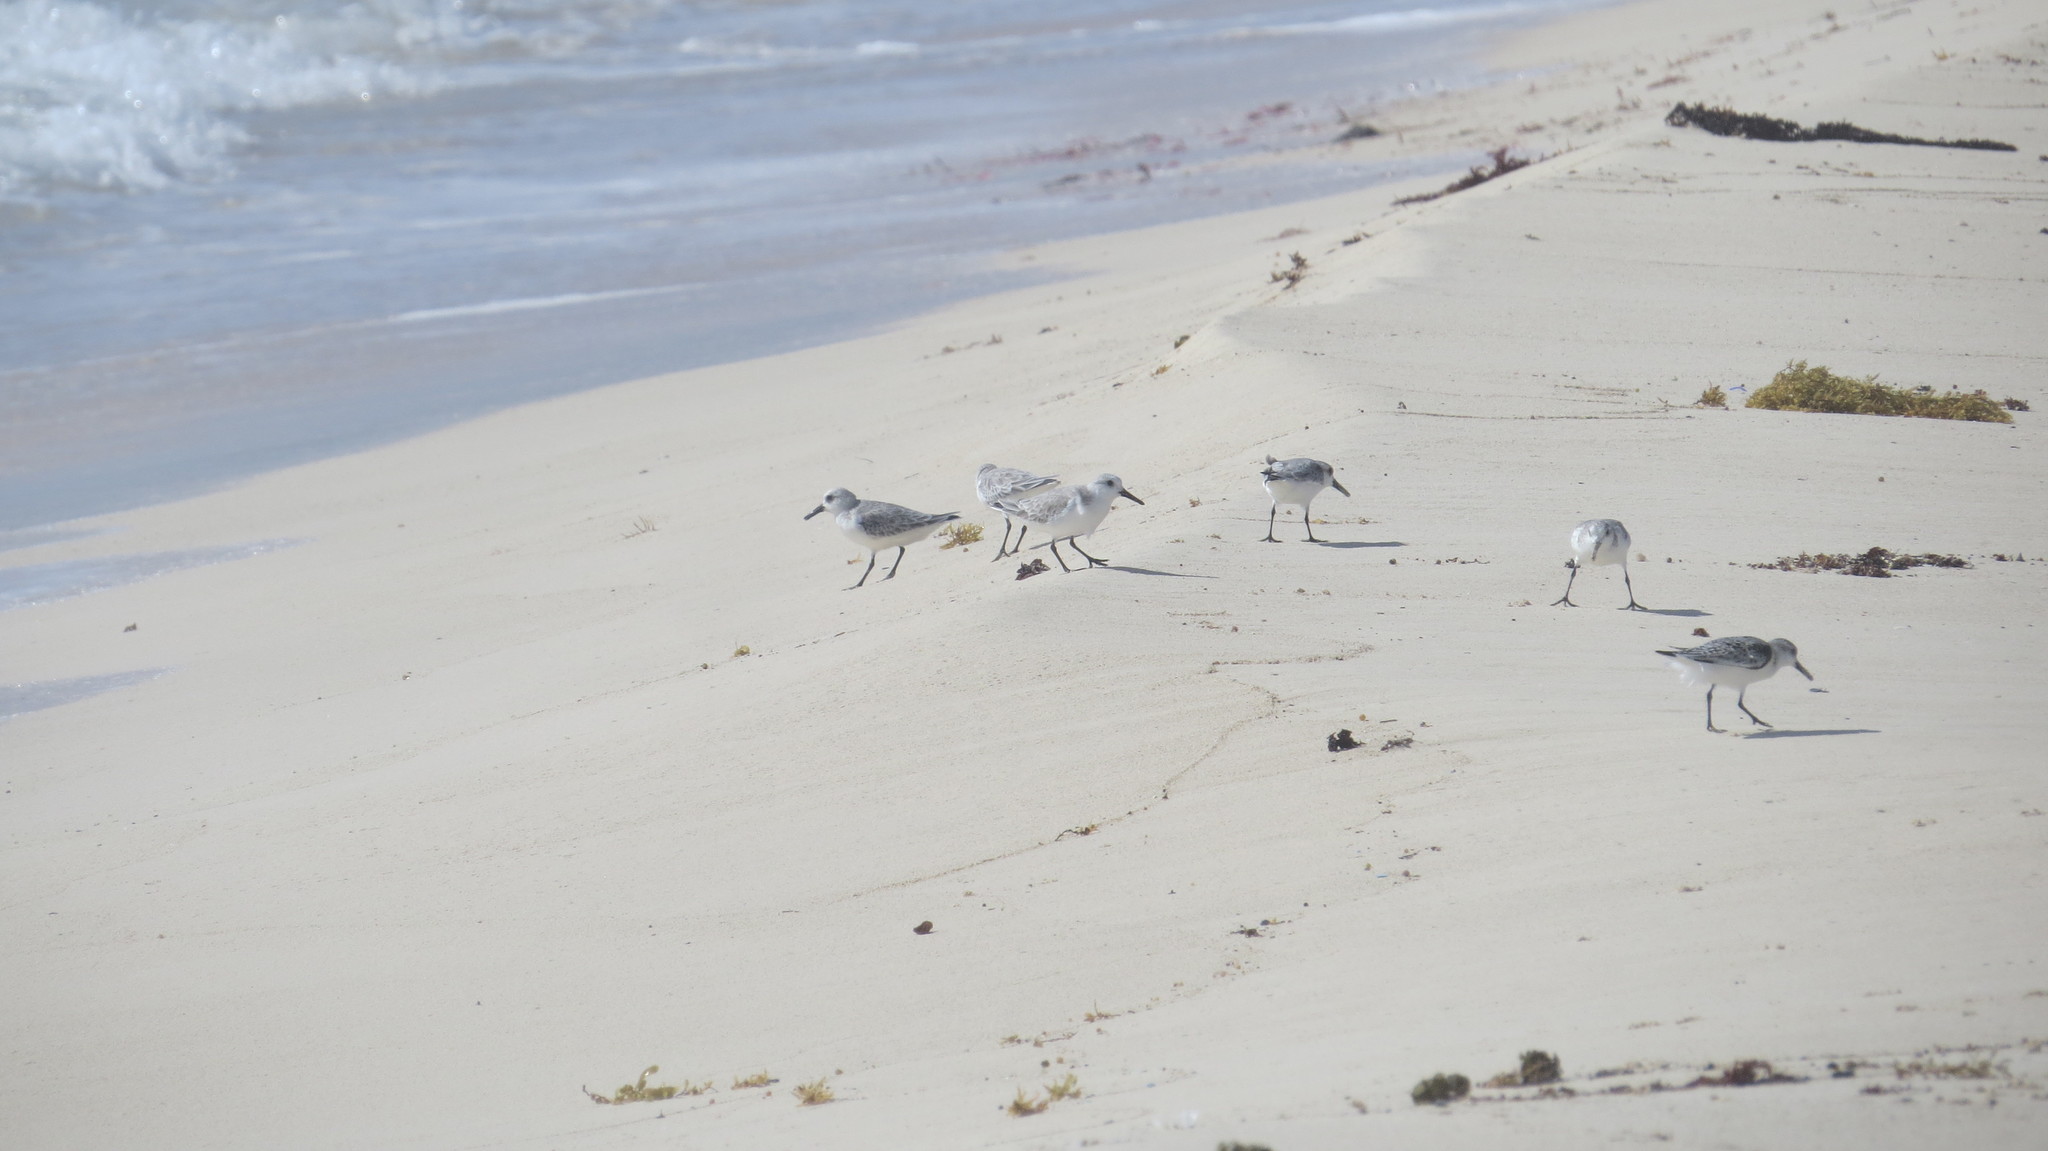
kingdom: Animalia
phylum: Chordata
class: Aves
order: Charadriiformes
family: Scolopacidae
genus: Calidris
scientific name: Calidris alba
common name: Sanderling
